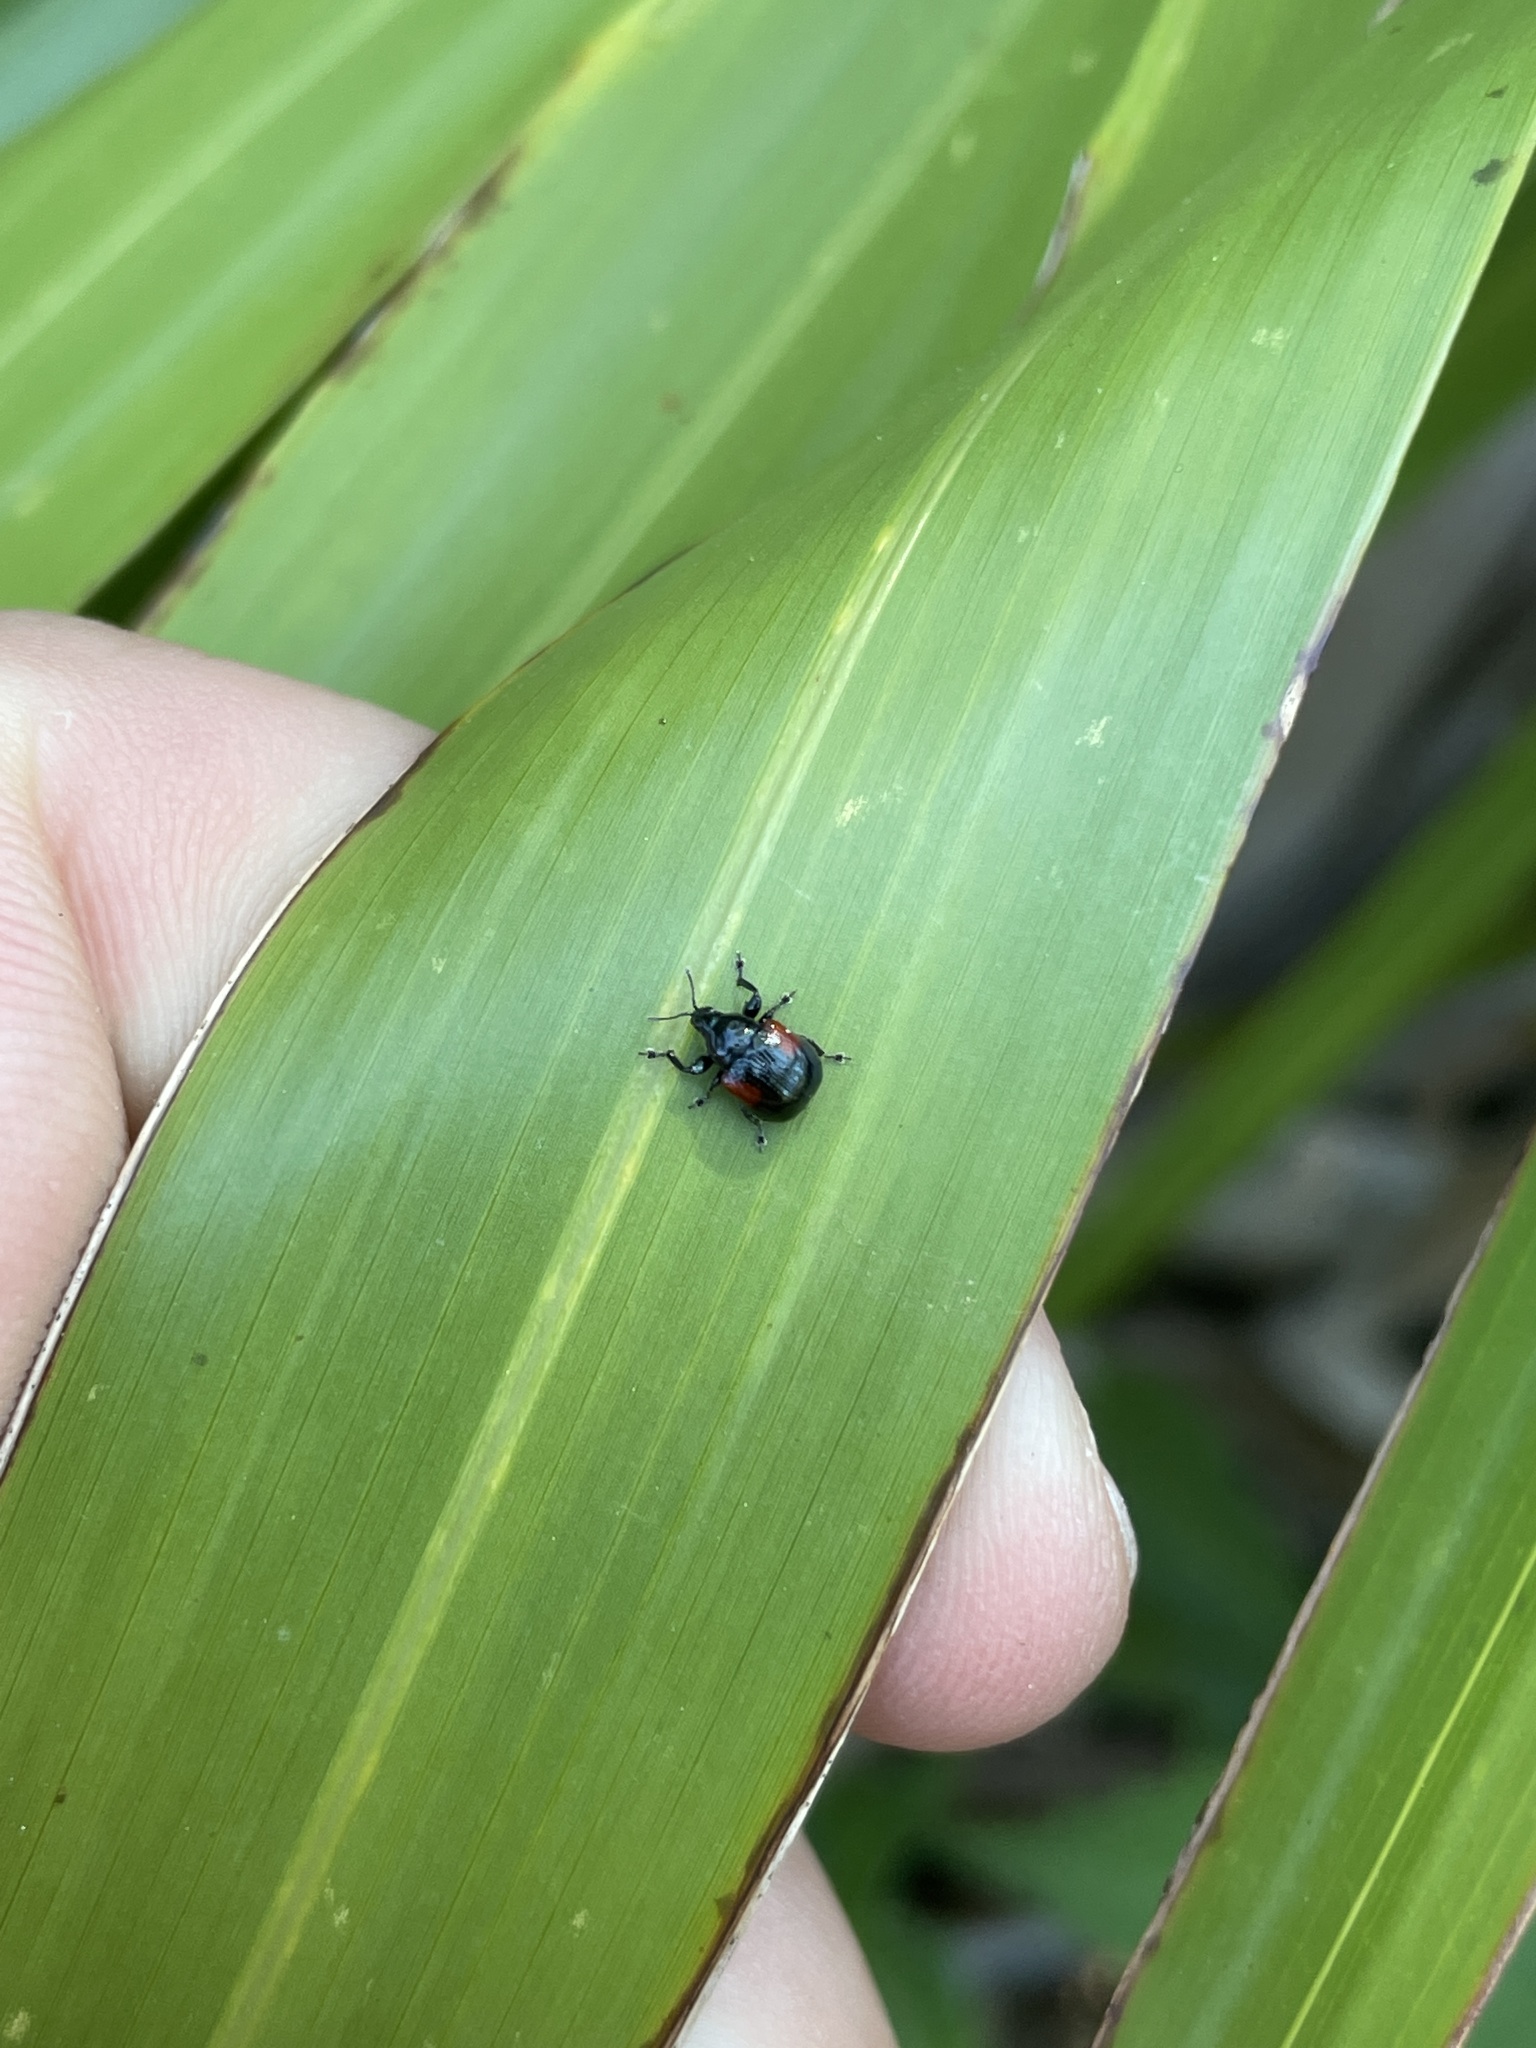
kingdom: Animalia
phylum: Arthropoda
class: Insecta
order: Coleoptera
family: Attelabidae
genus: Attelabus
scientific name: Attelabus bipustulatus
